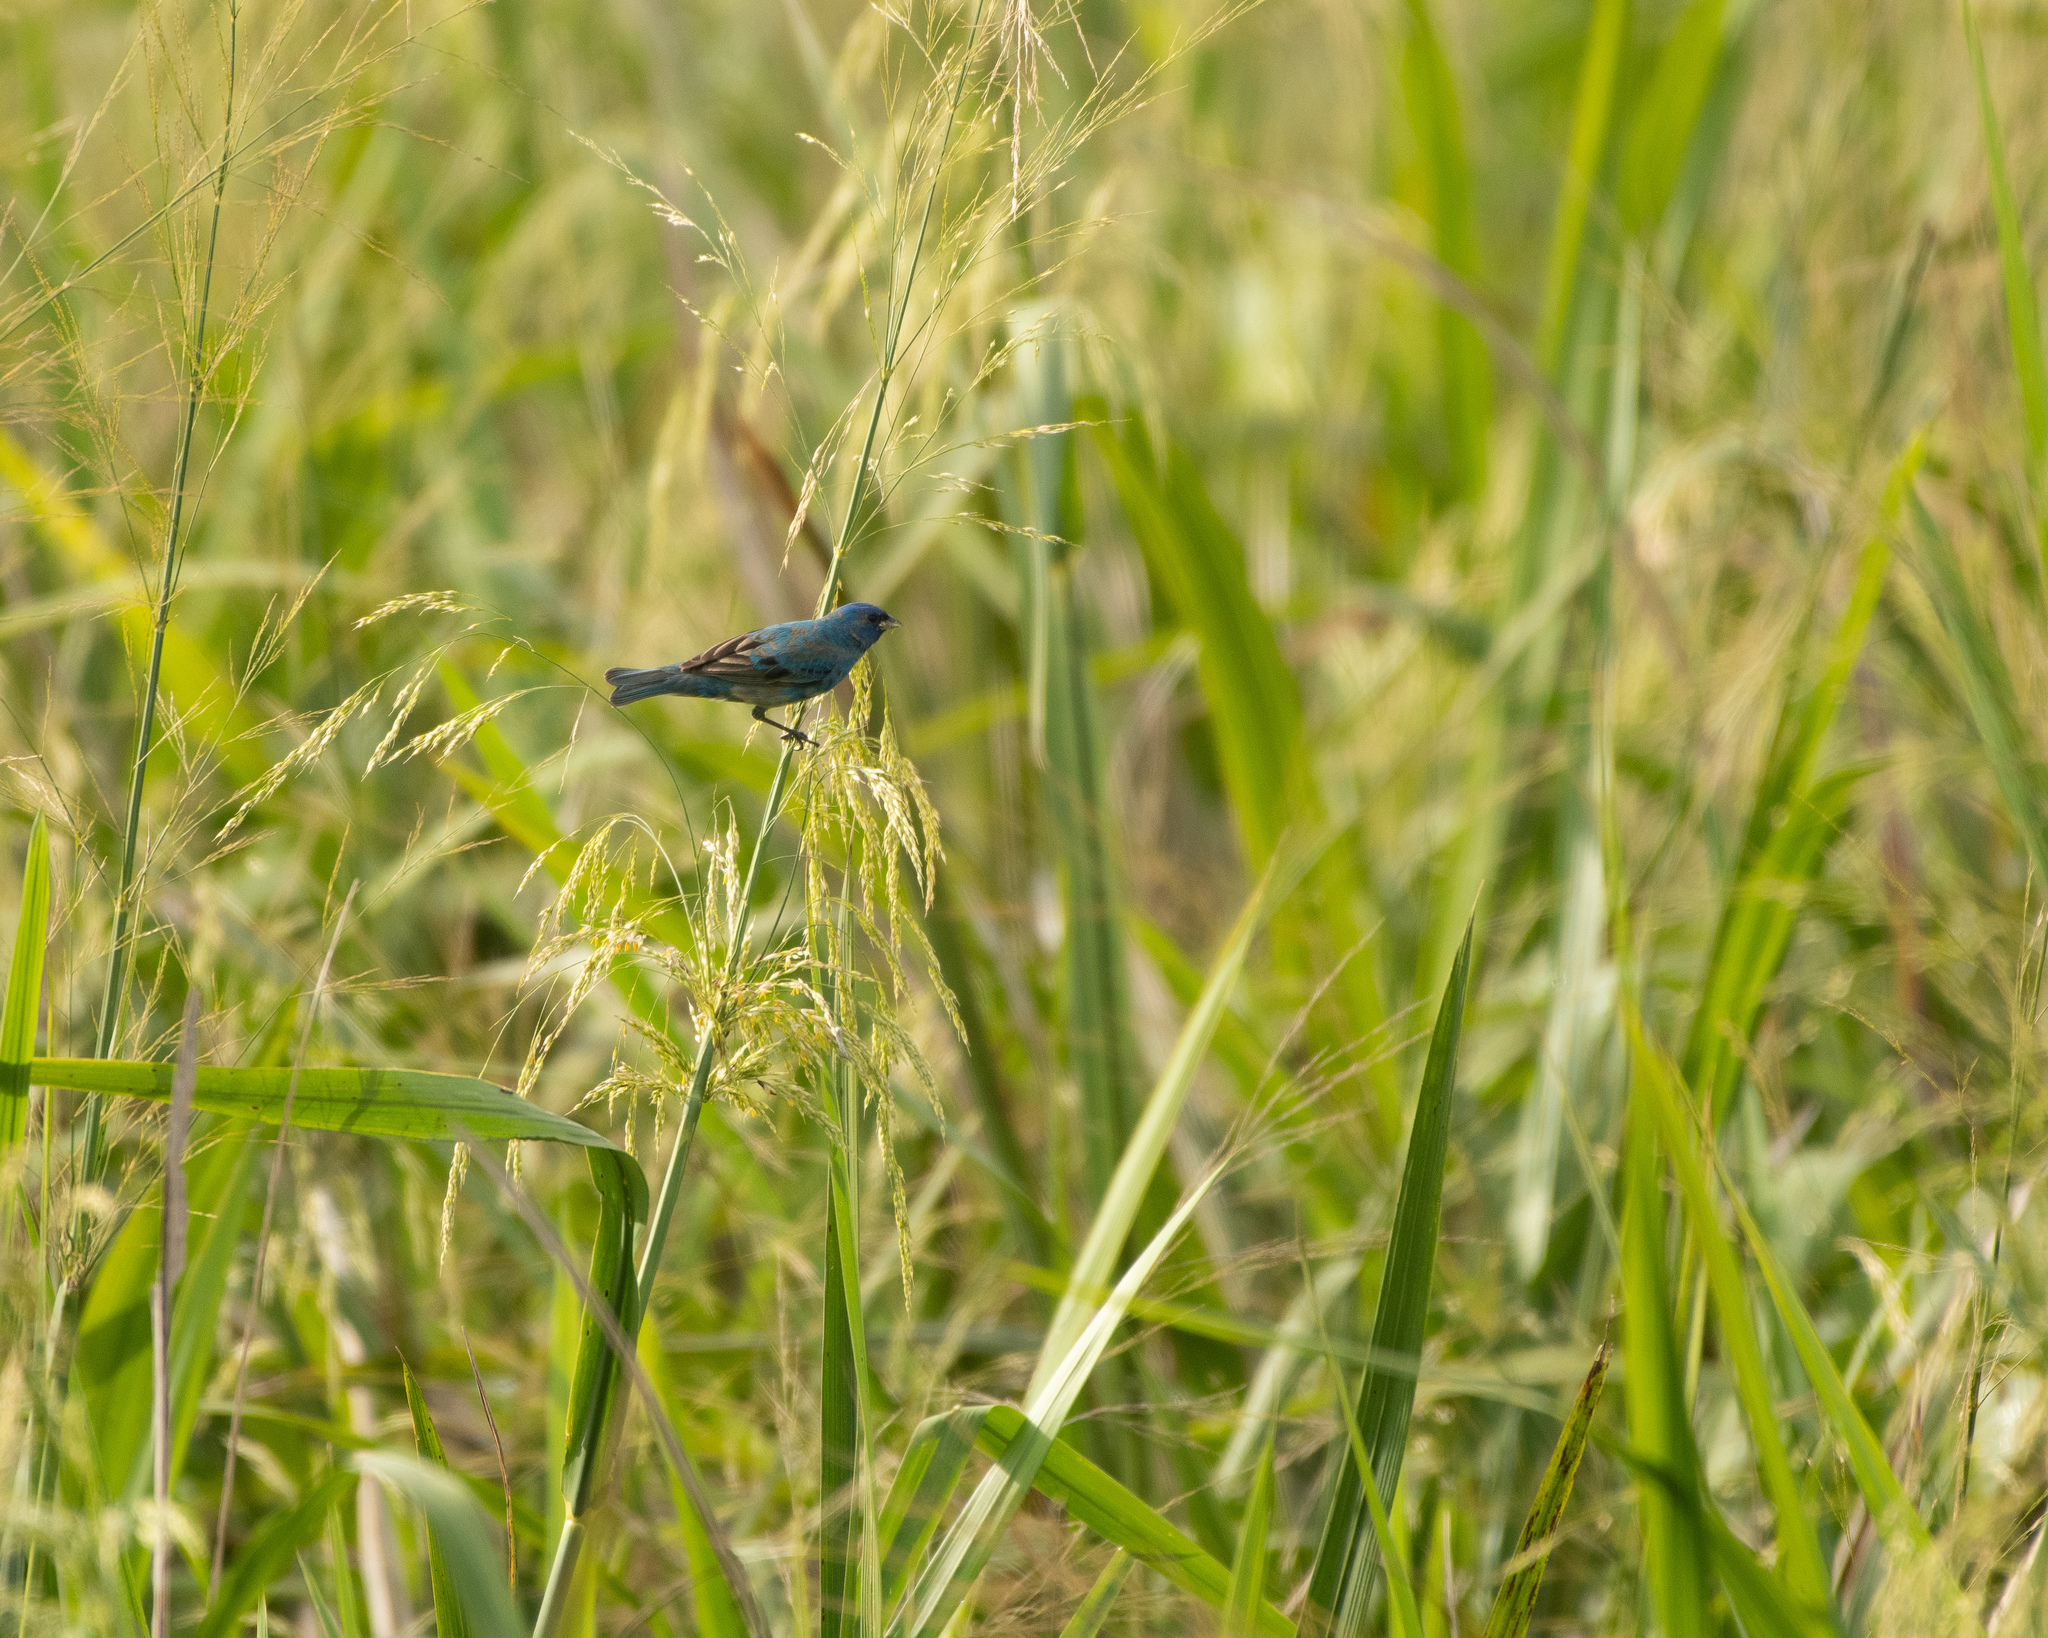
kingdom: Animalia
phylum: Chordata
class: Aves
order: Passeriformes
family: Cardinalidae
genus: Passerina
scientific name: Passerina cyanea
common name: Indigo bunting
